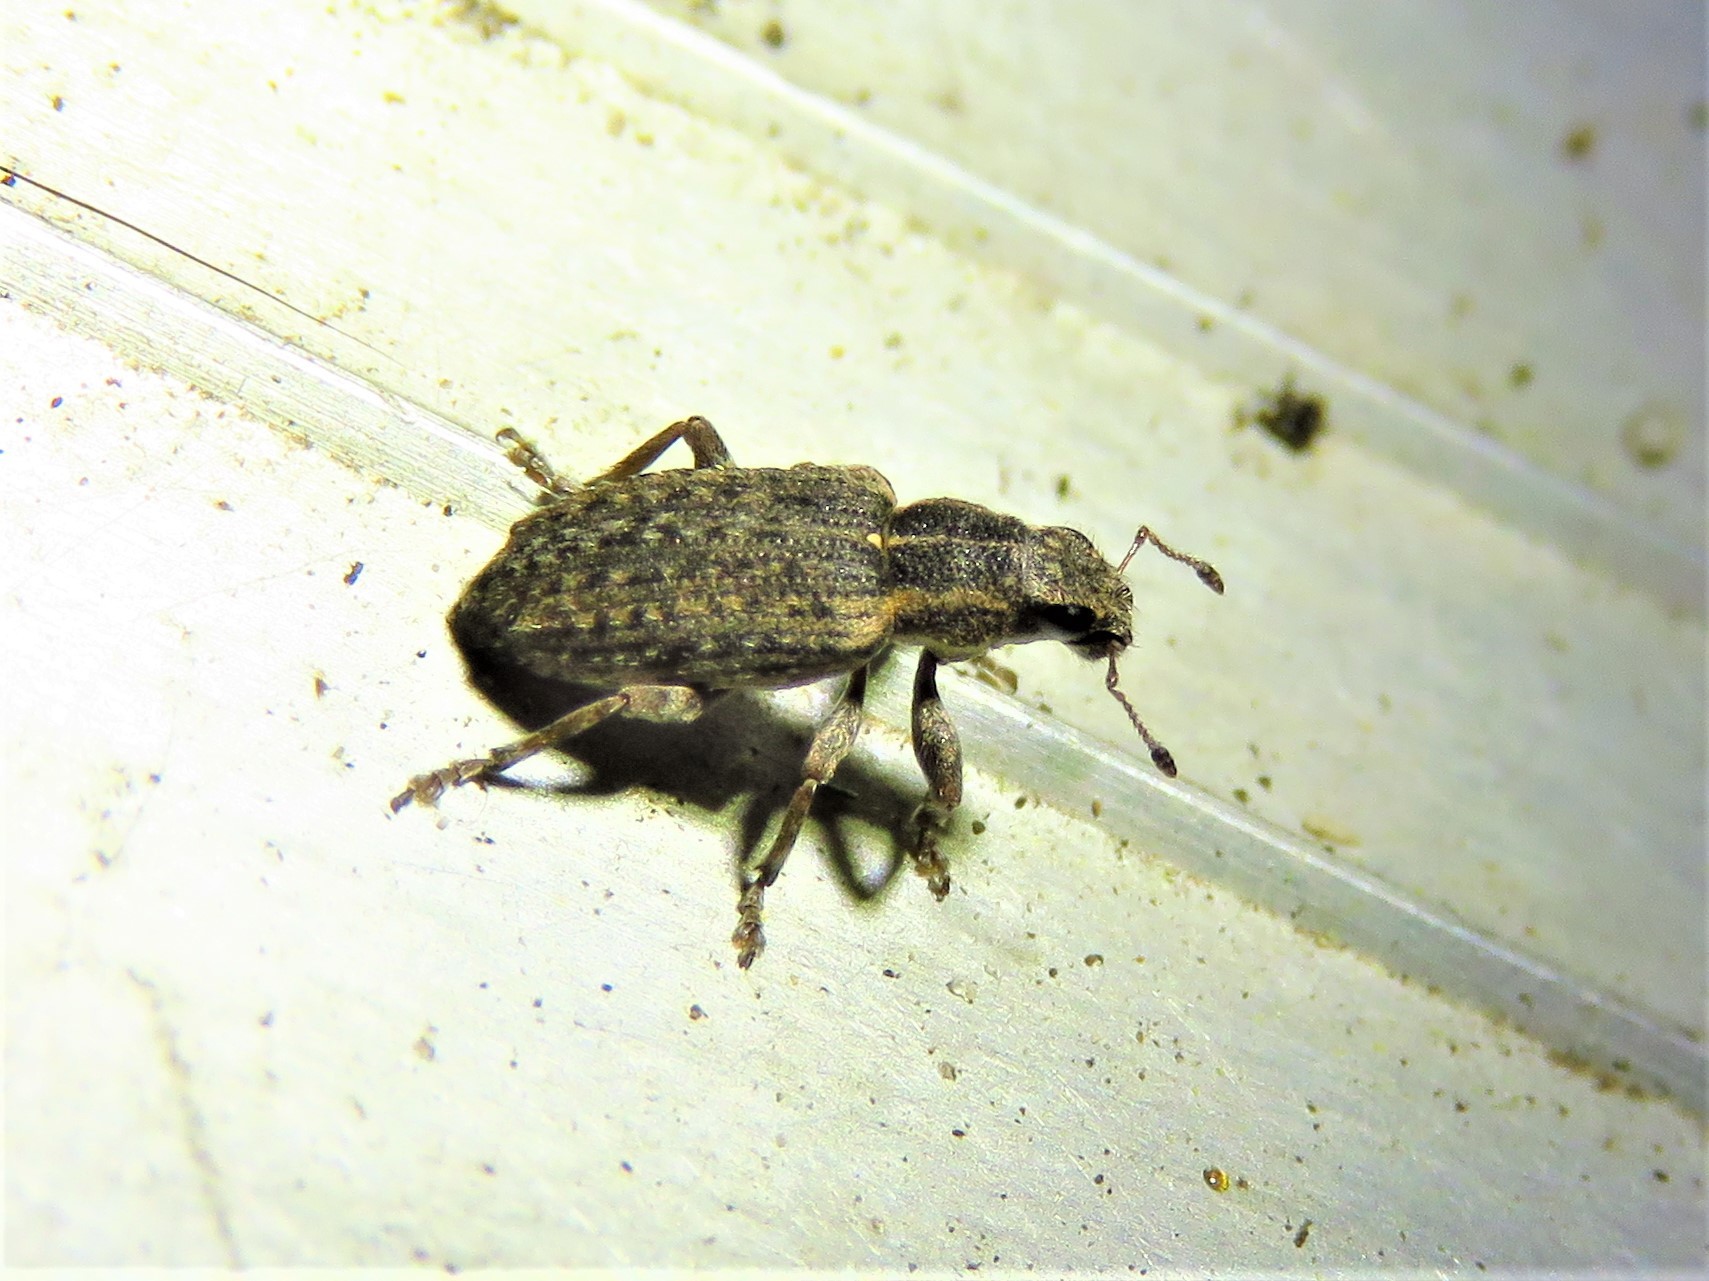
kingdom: Animalia
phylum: Arthropoda
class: Insecta
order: Coleoptera
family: Curculionidae
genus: Sitones
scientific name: Sitones californius
